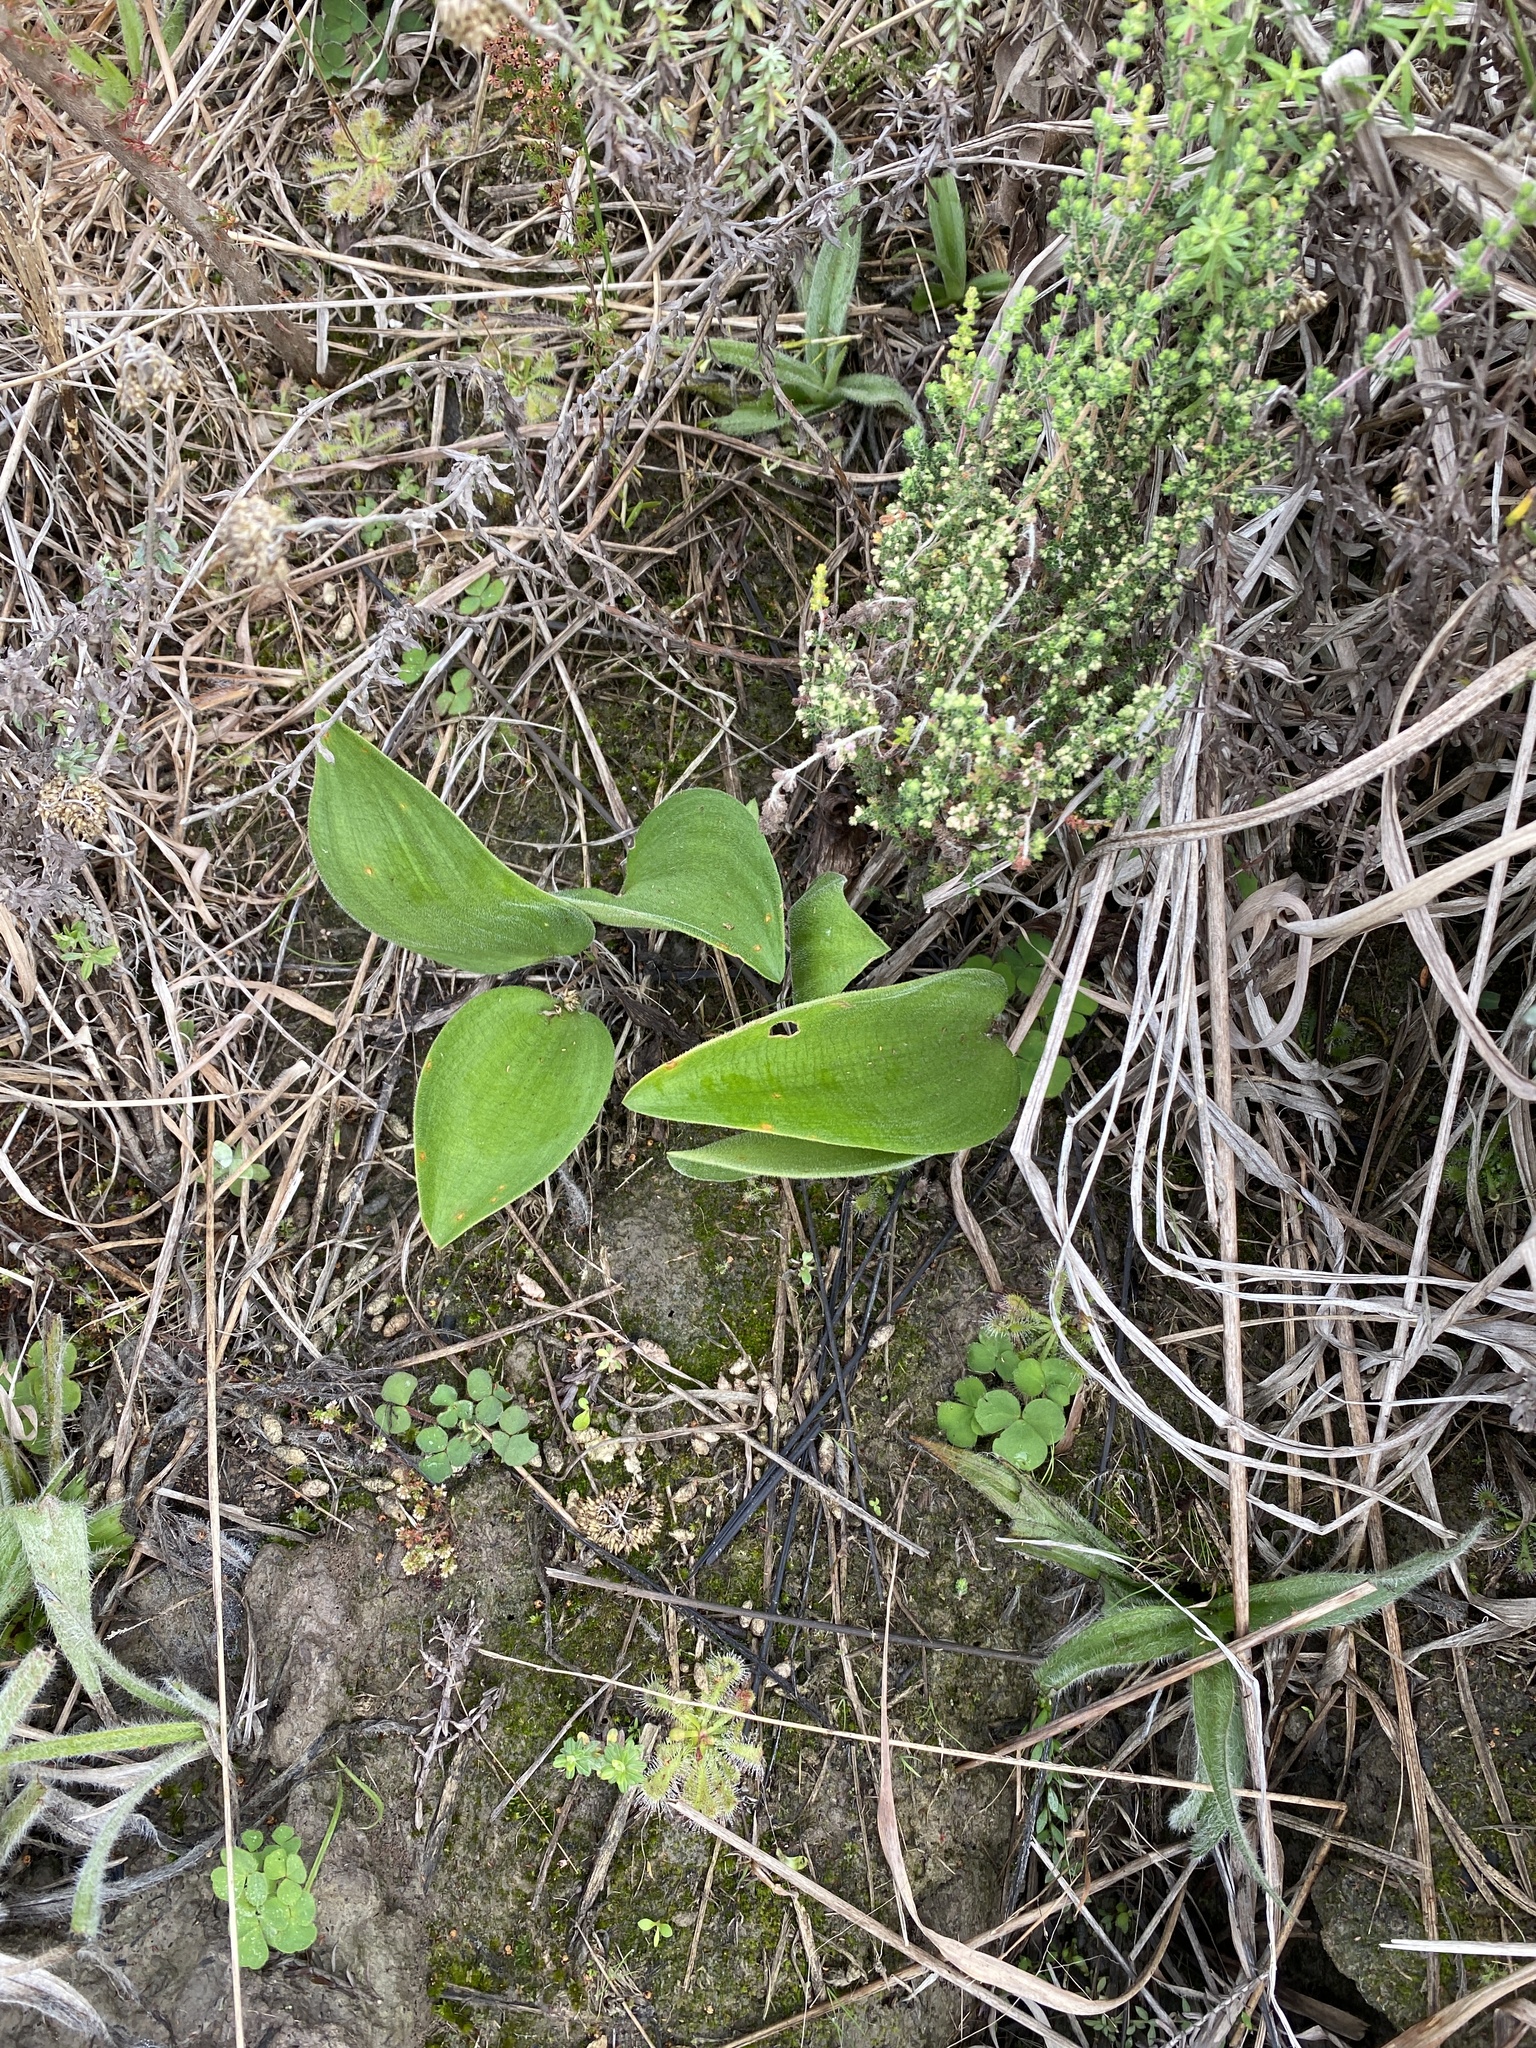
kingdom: Plantae
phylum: Tracheophyta
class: Liliopsida
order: Asparagales
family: Asparagaceae
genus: Eriospermum
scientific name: Eriospermum dielsianum
